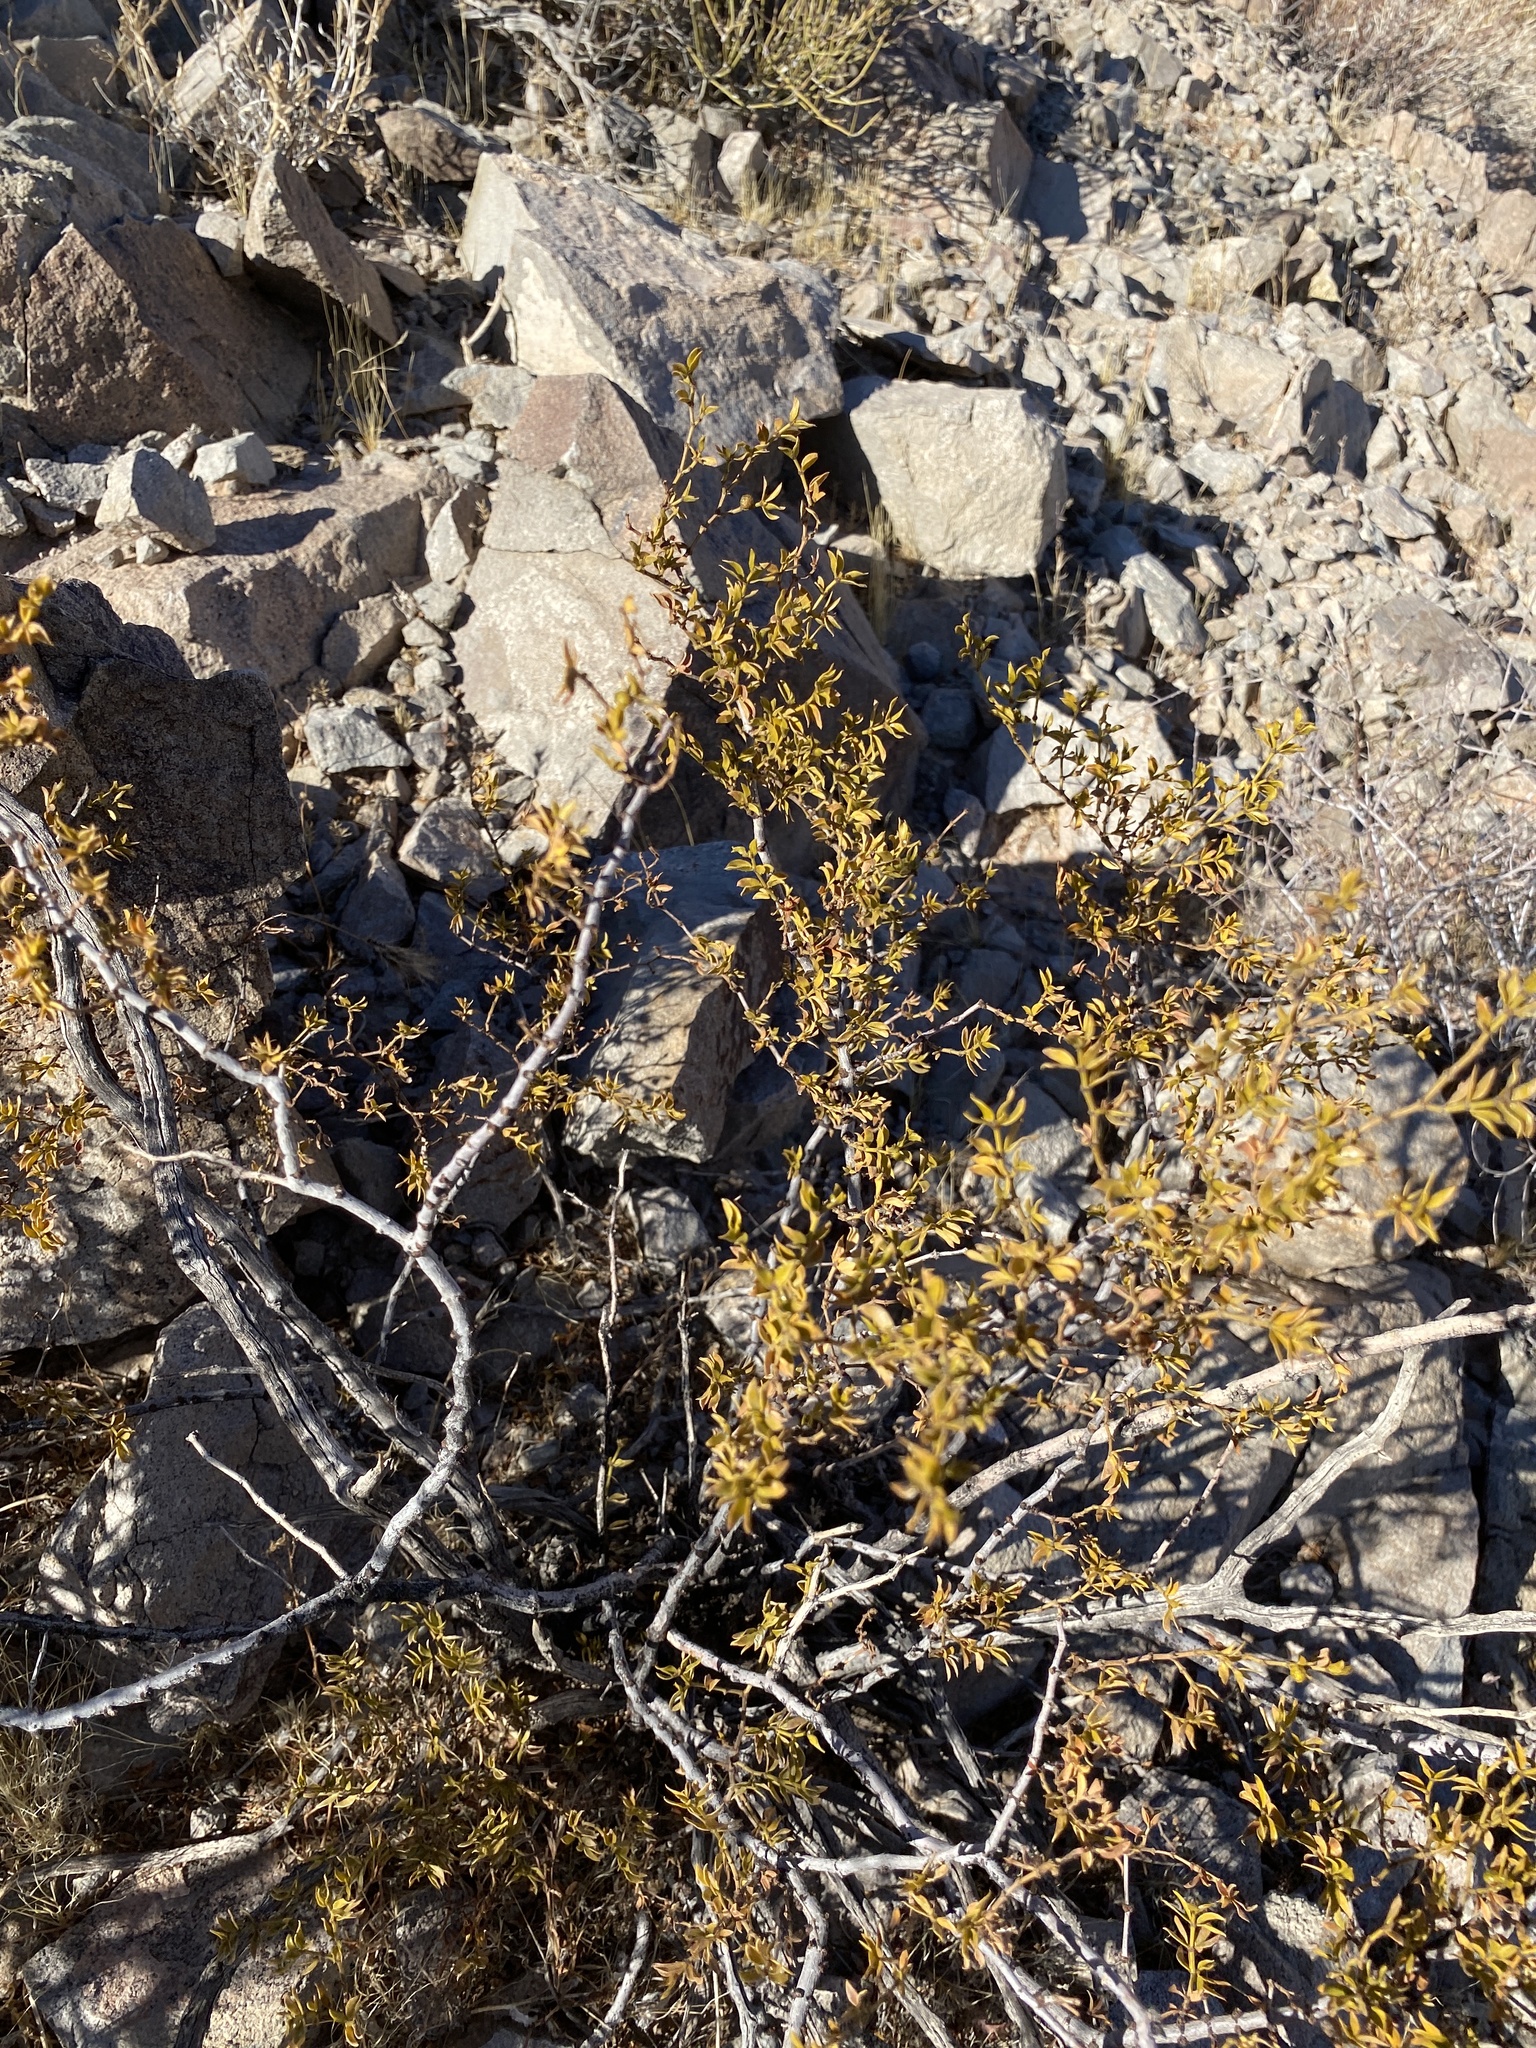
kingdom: Plantae
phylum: Tracheophyta
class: Magnoliopsida
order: Zygophyllales
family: Zygophyllaceae
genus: Larrea
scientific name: Larrea tridentata
